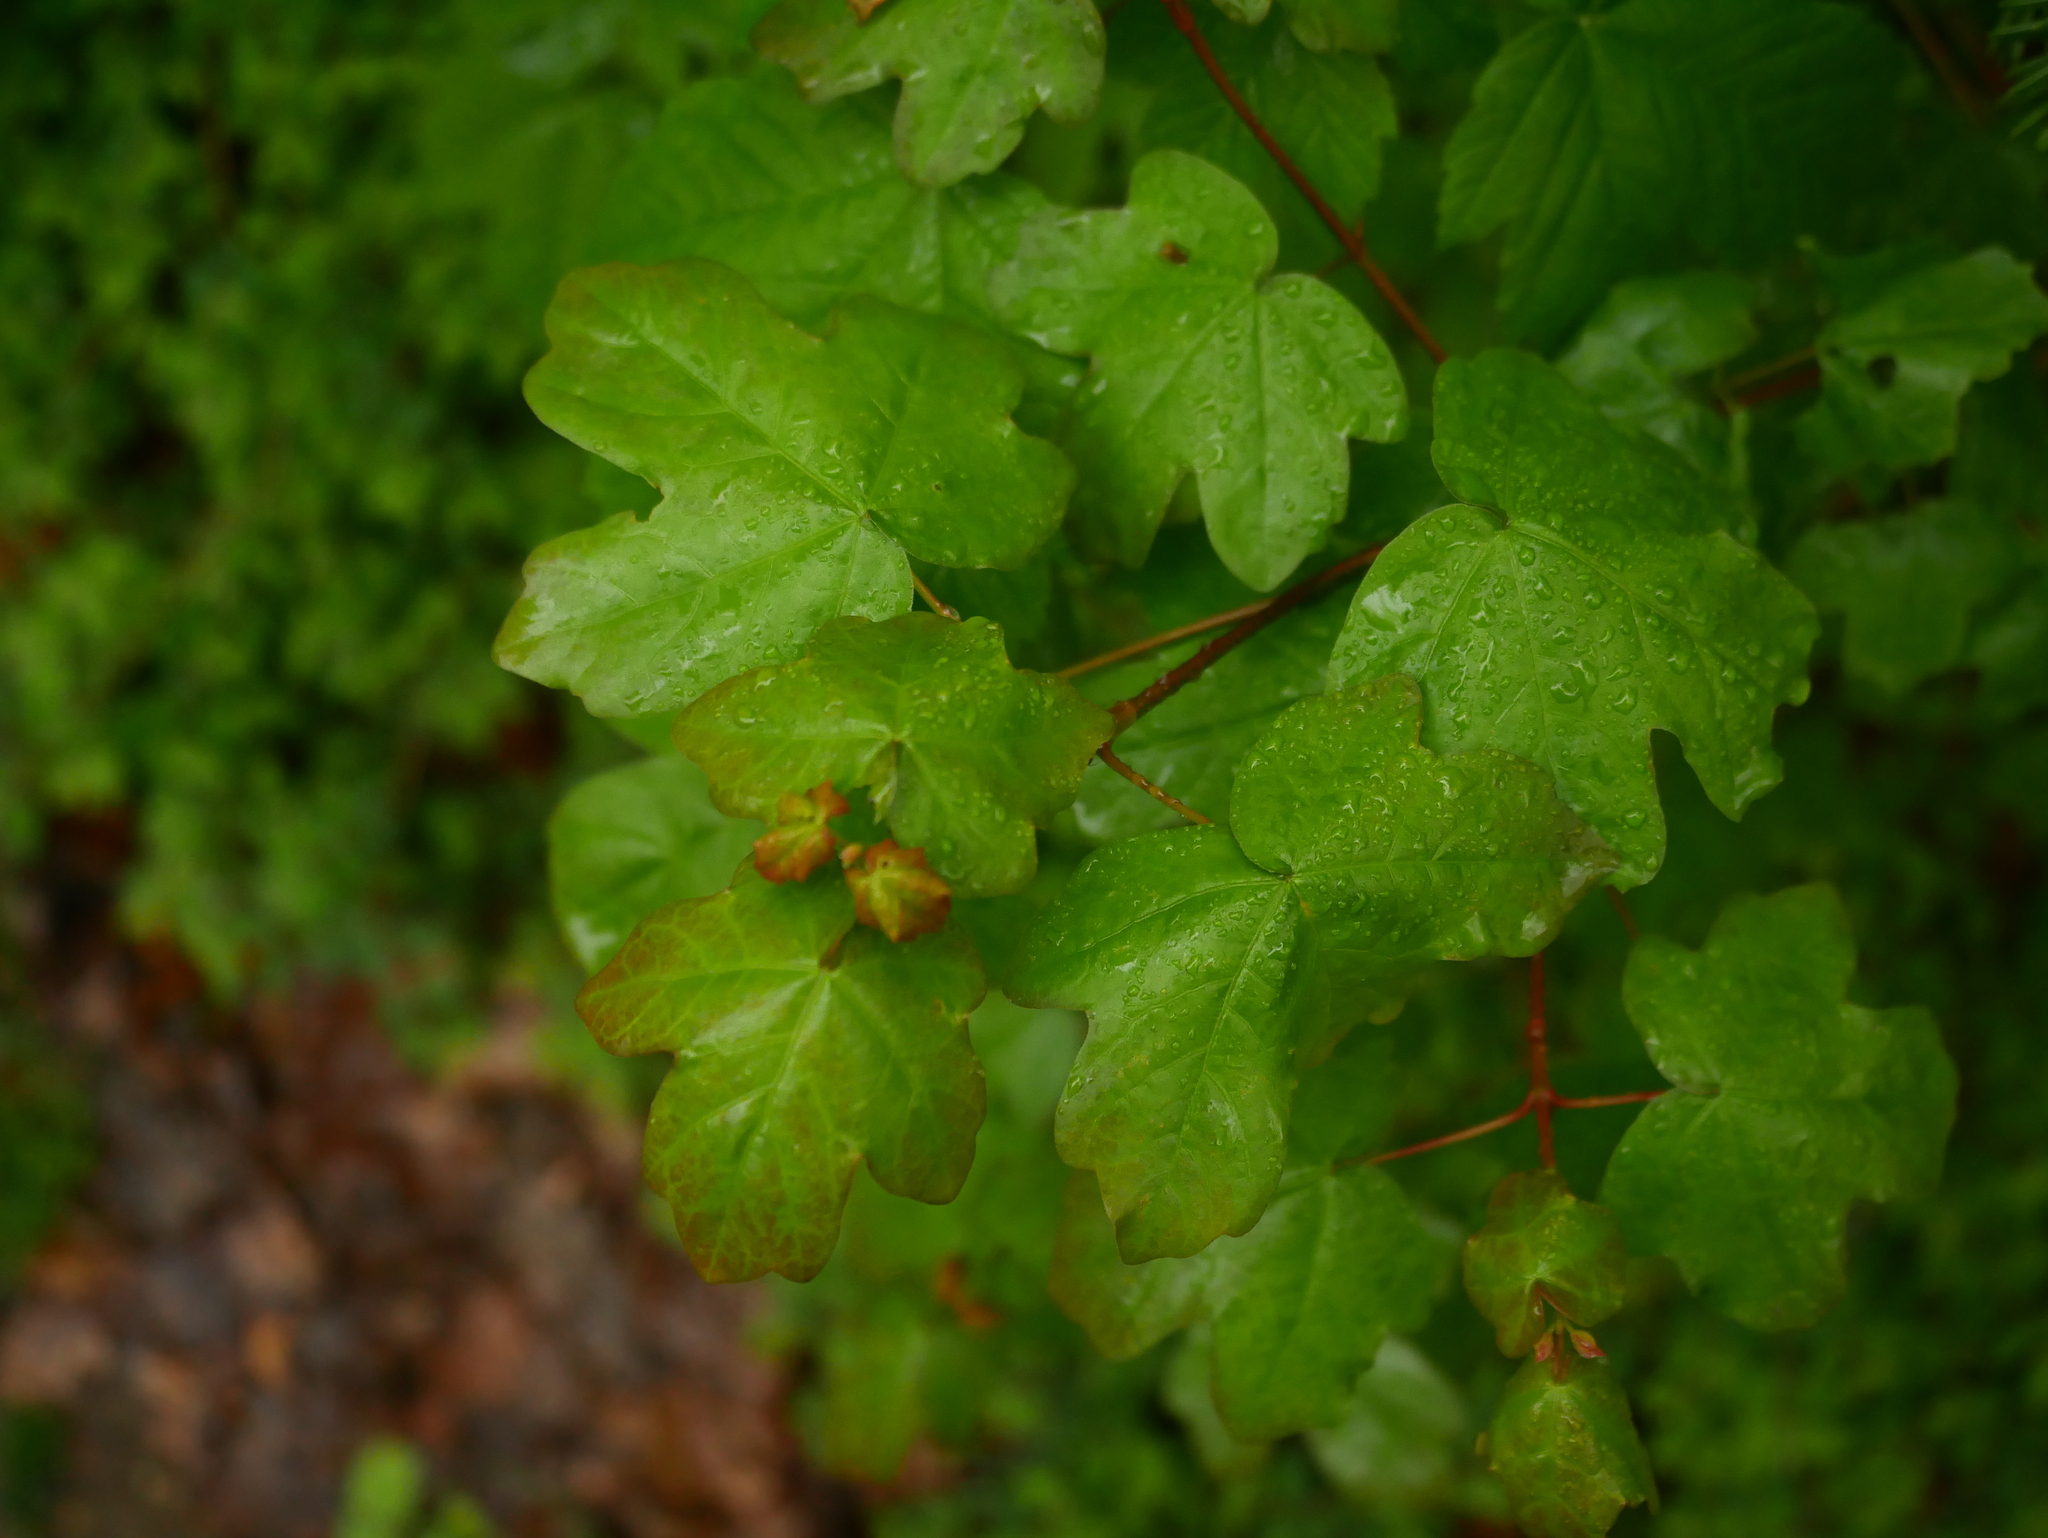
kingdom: Plantae
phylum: Tracheophyta
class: Magnoliopsida
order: Sapindales
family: Sapindaceae
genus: Acer
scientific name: Acer campestre
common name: Field maple
